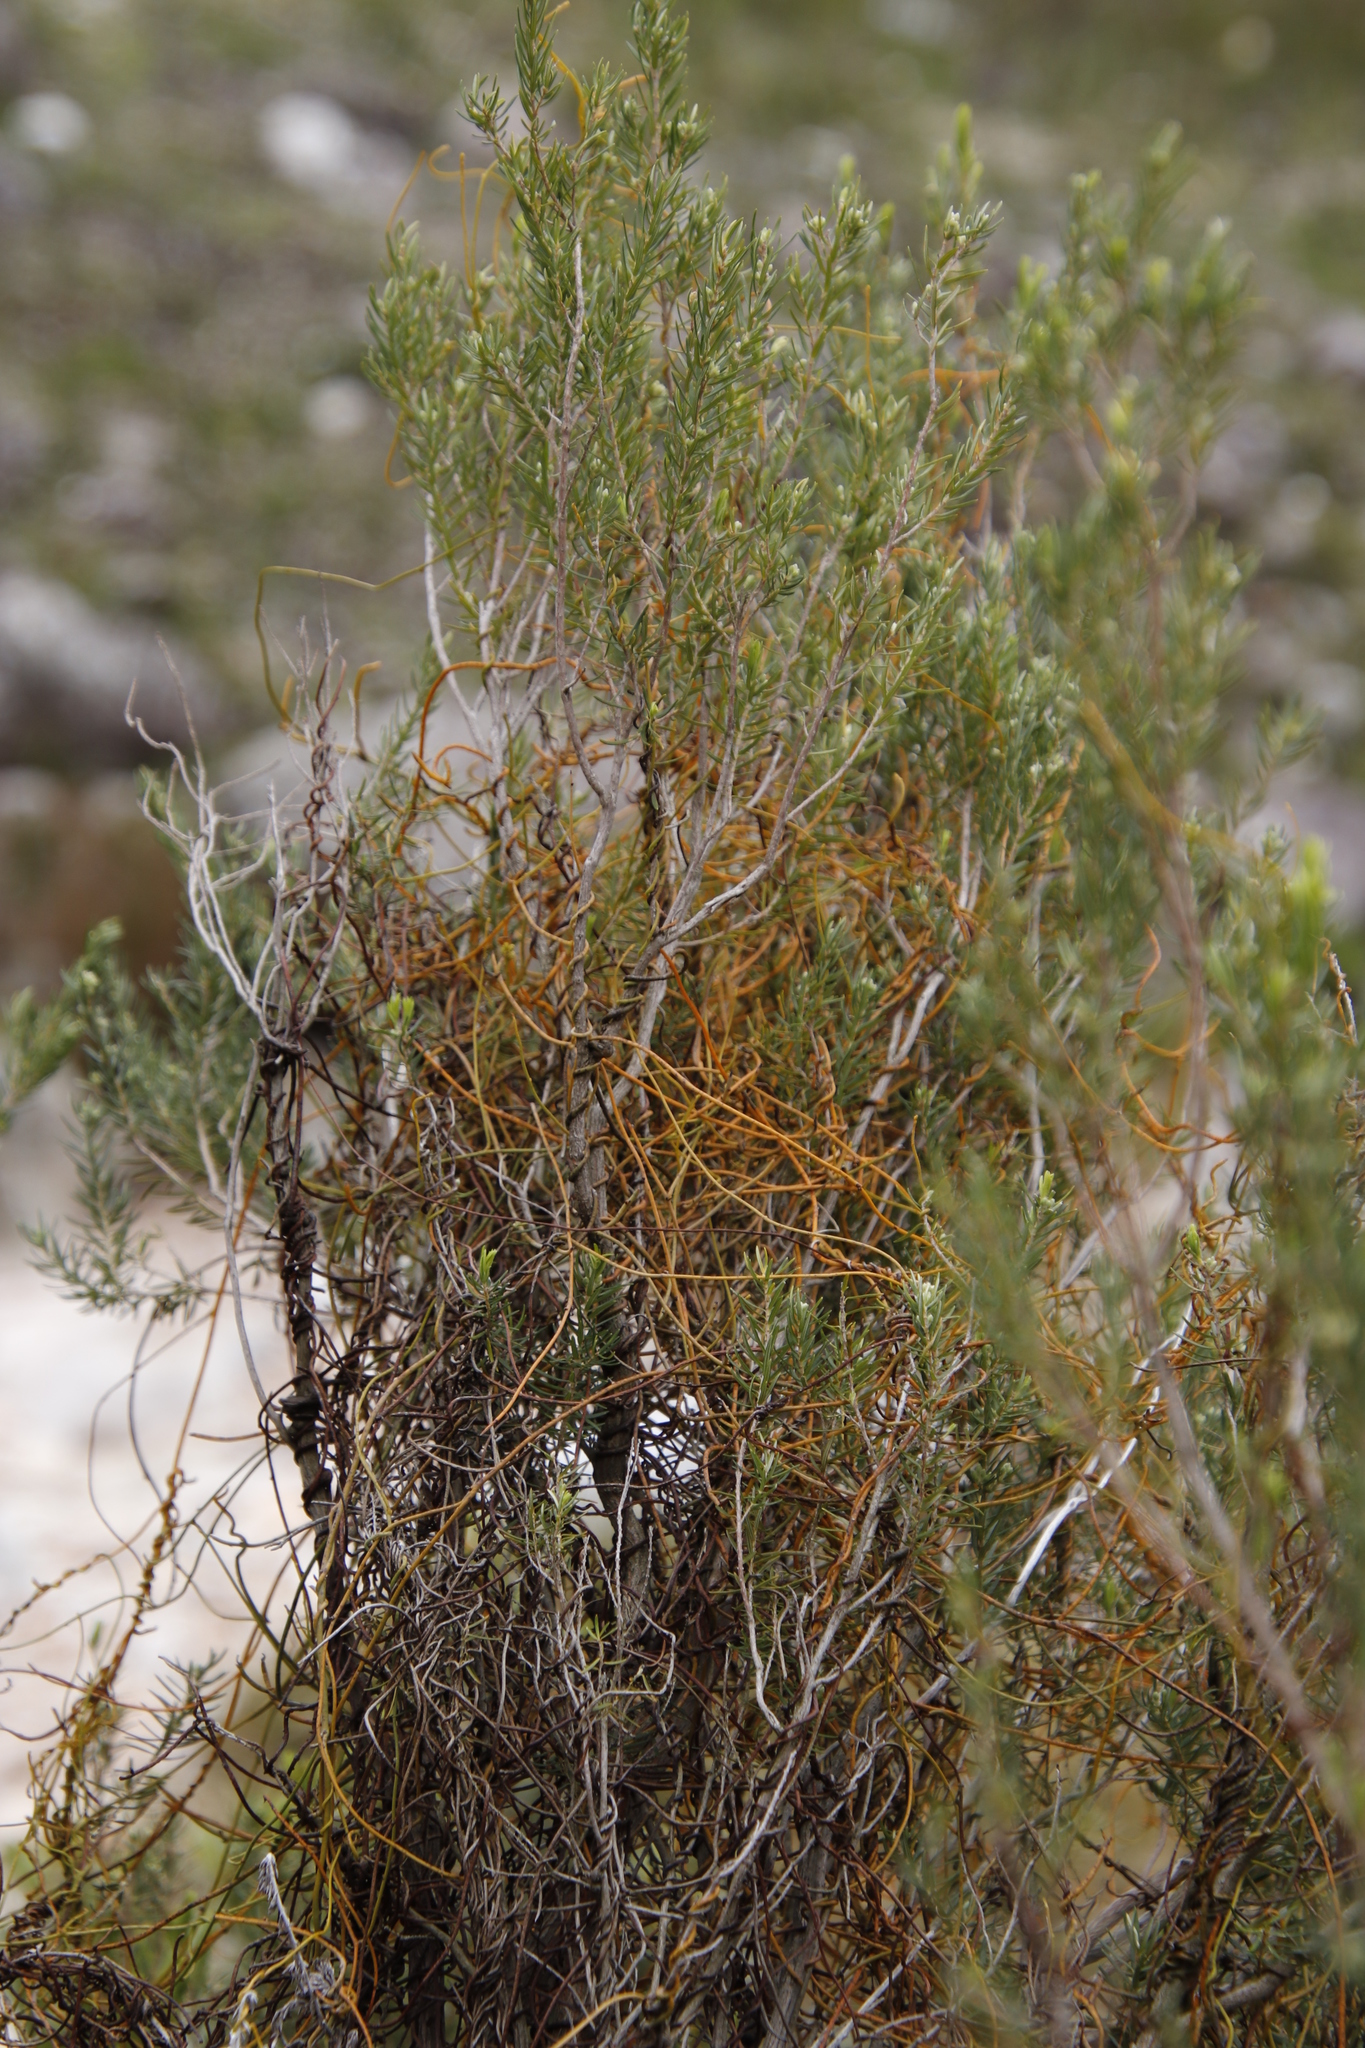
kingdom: Plantae
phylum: Tracheophyta
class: Magnoliopsida
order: Laurales
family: Lauraceae
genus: Cassytha
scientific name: Cassytha ciliolata
